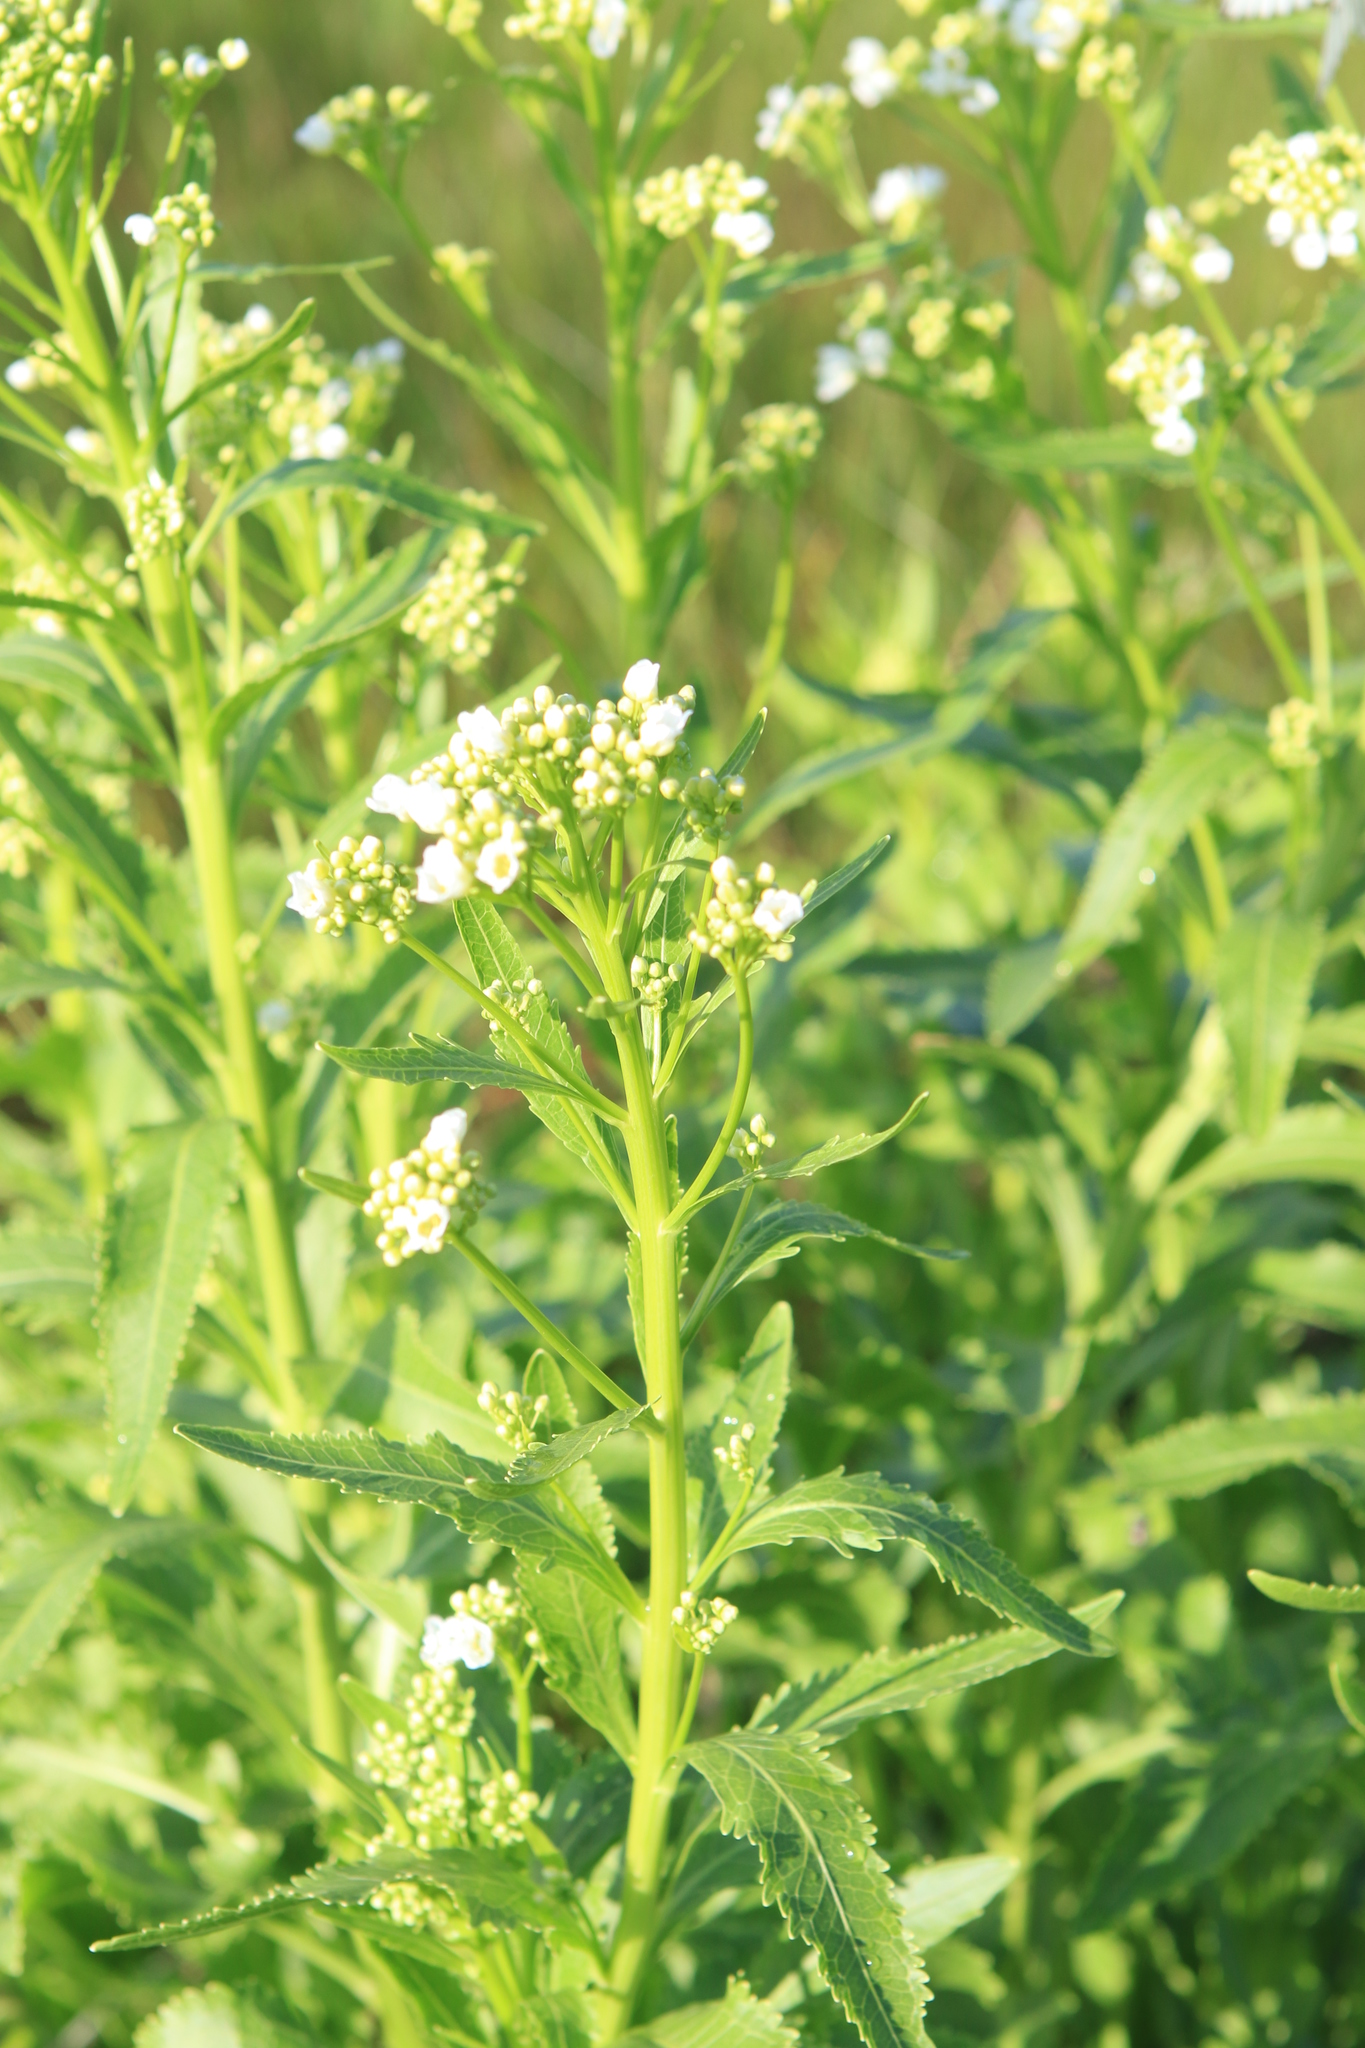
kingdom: Plantae
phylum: Tracheophyta
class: Magnoliopsida
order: Brassicales
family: Brassicaceae
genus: Armoracia
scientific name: Armoracia rusticana
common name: Horseradish
